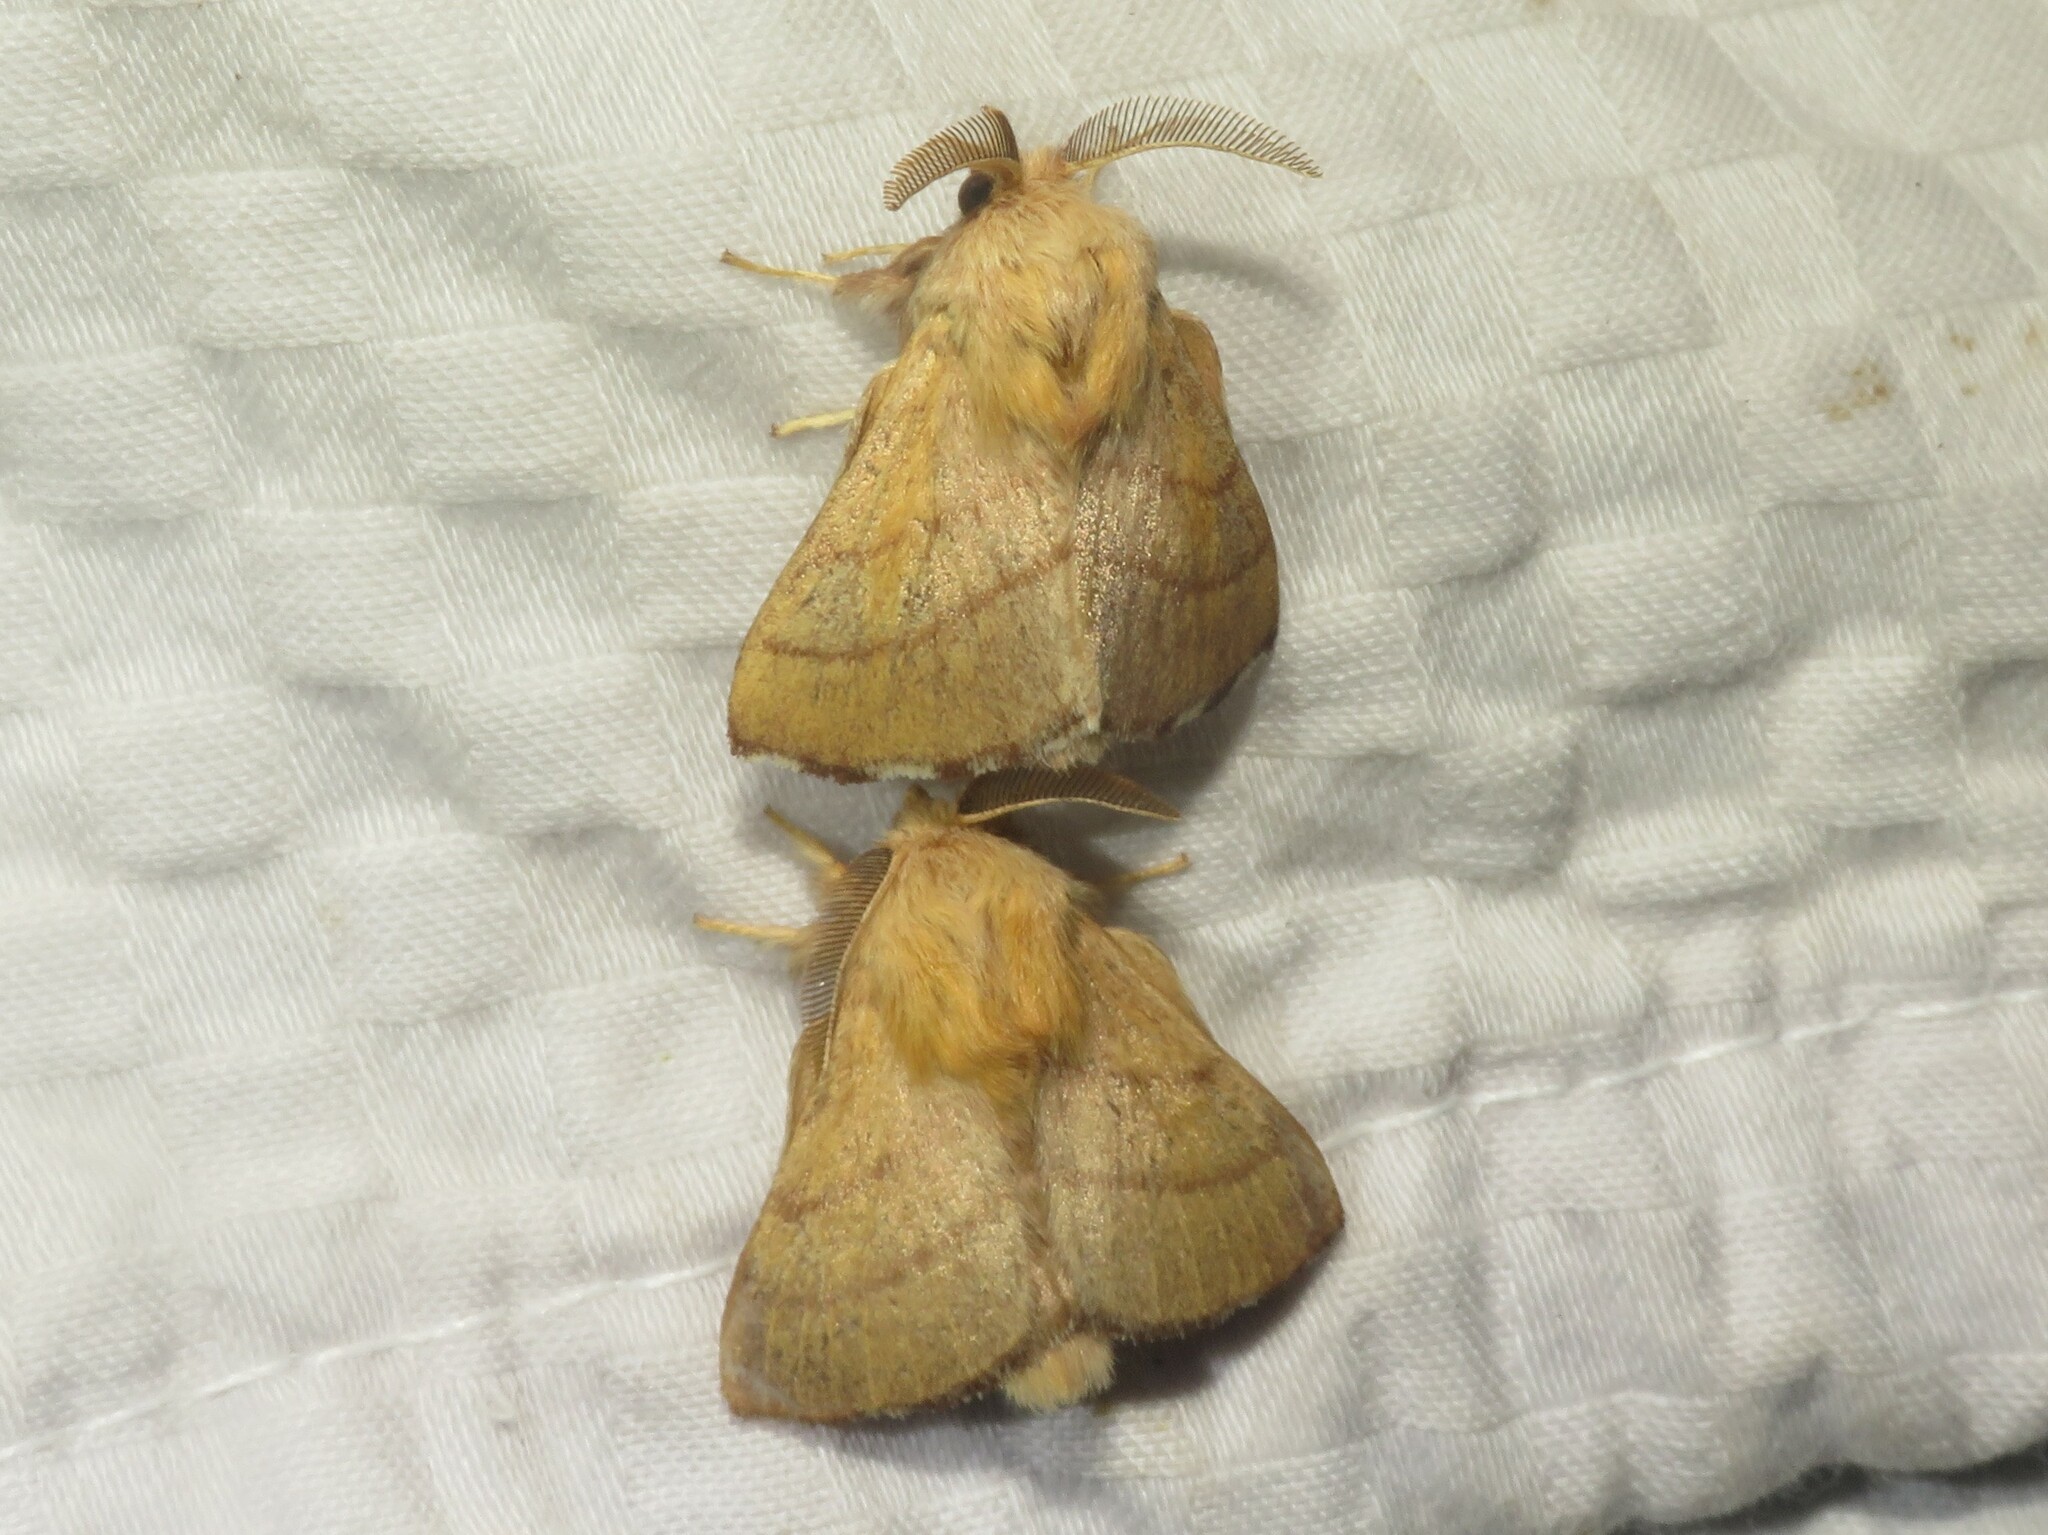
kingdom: Animalia
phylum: Arthropoda
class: Insecta
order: Lepidoptera
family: Lasiocampidae
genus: Malacosoma
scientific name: Malacosoma disstria
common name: Forest tent caterpillar
